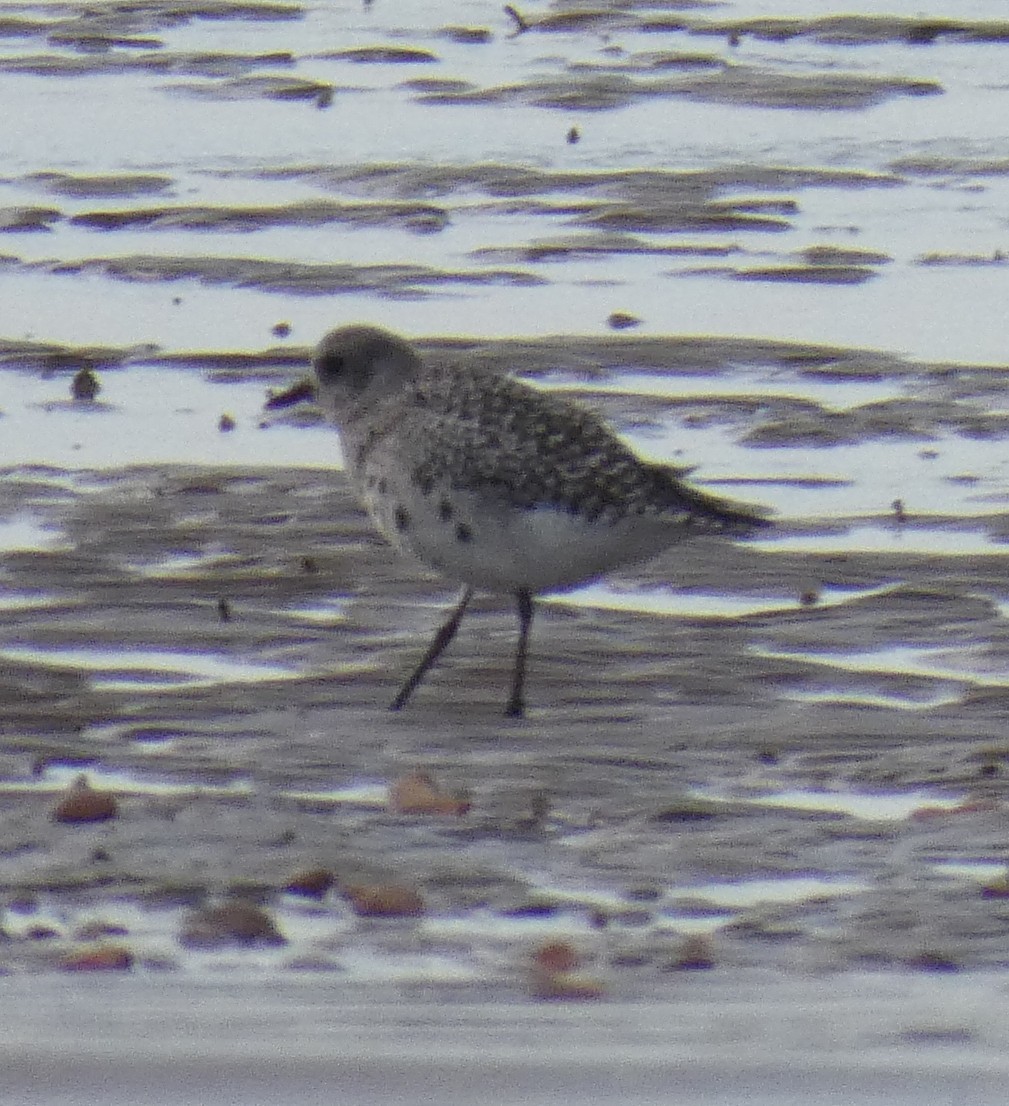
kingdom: Animalia
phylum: Chordata
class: Aves
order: Charadriiformes
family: Charadriidae
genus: Pluvialis
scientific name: Pluvialis squatarola
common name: Grey plover
